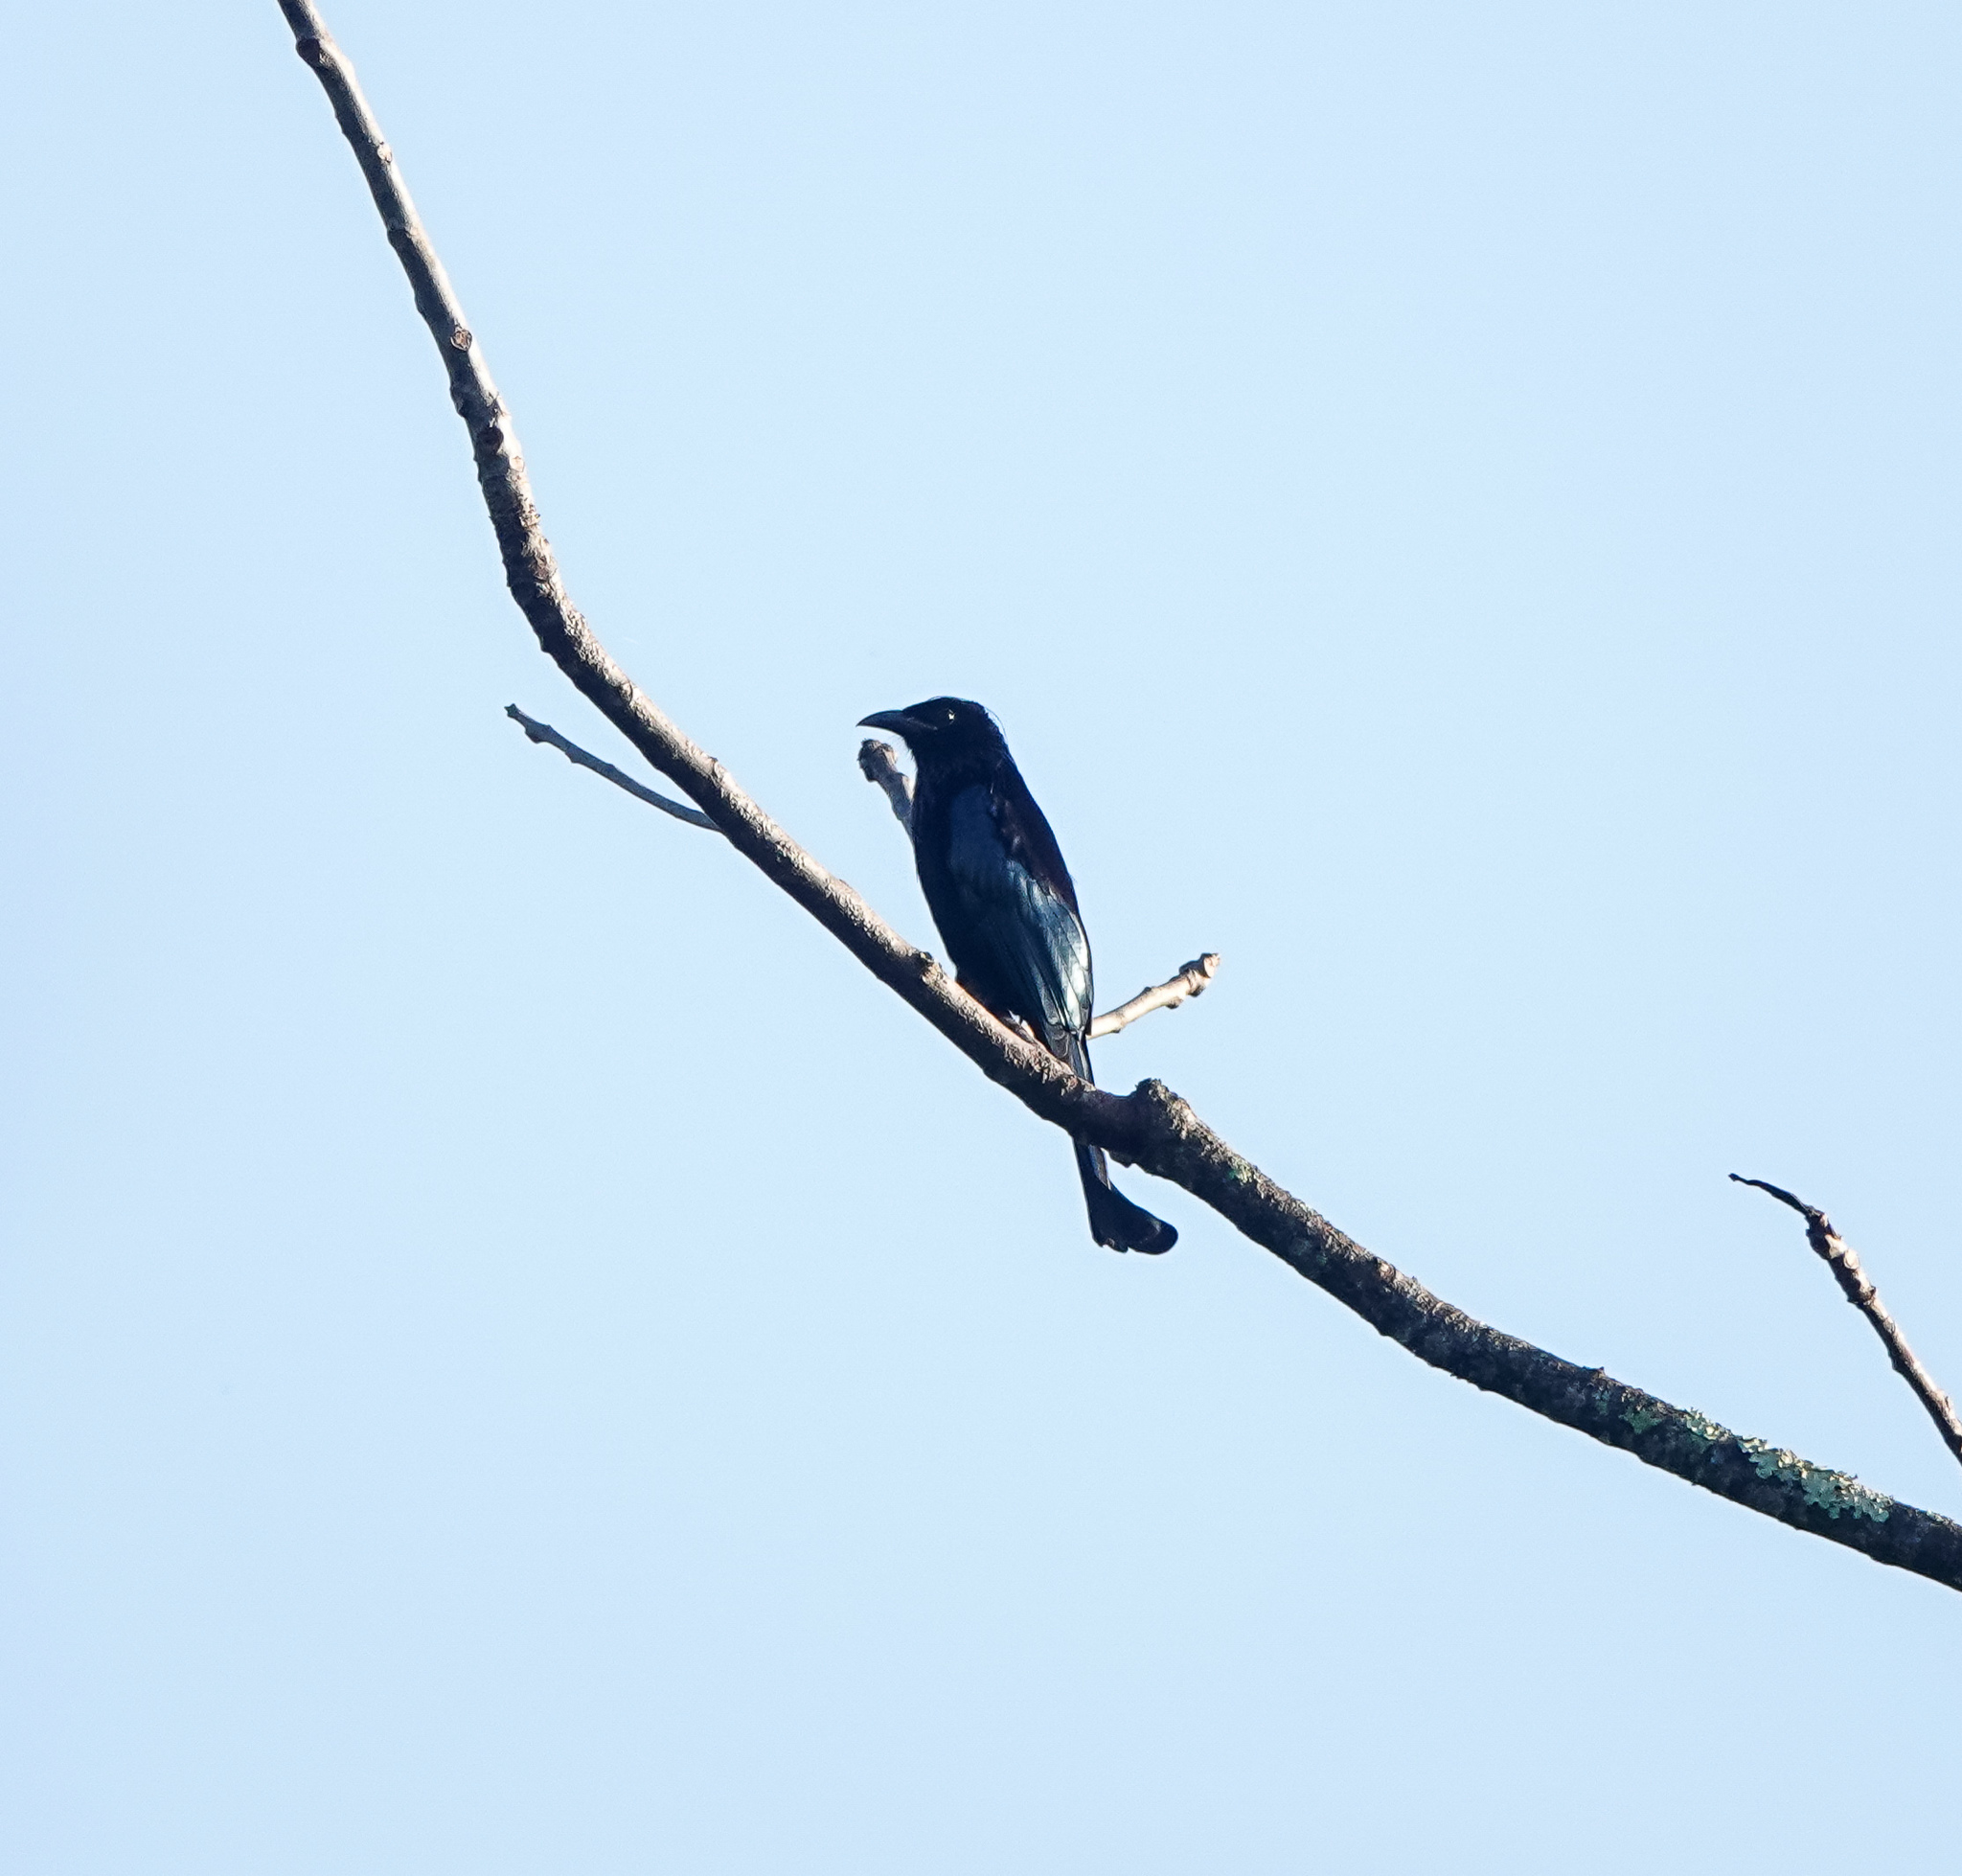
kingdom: Animalia
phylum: Chordata
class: Aves
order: Passeriformes
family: Dicruridae
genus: Dicrurus
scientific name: Dicrurus hottentottus
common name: Hair-crested drongo
